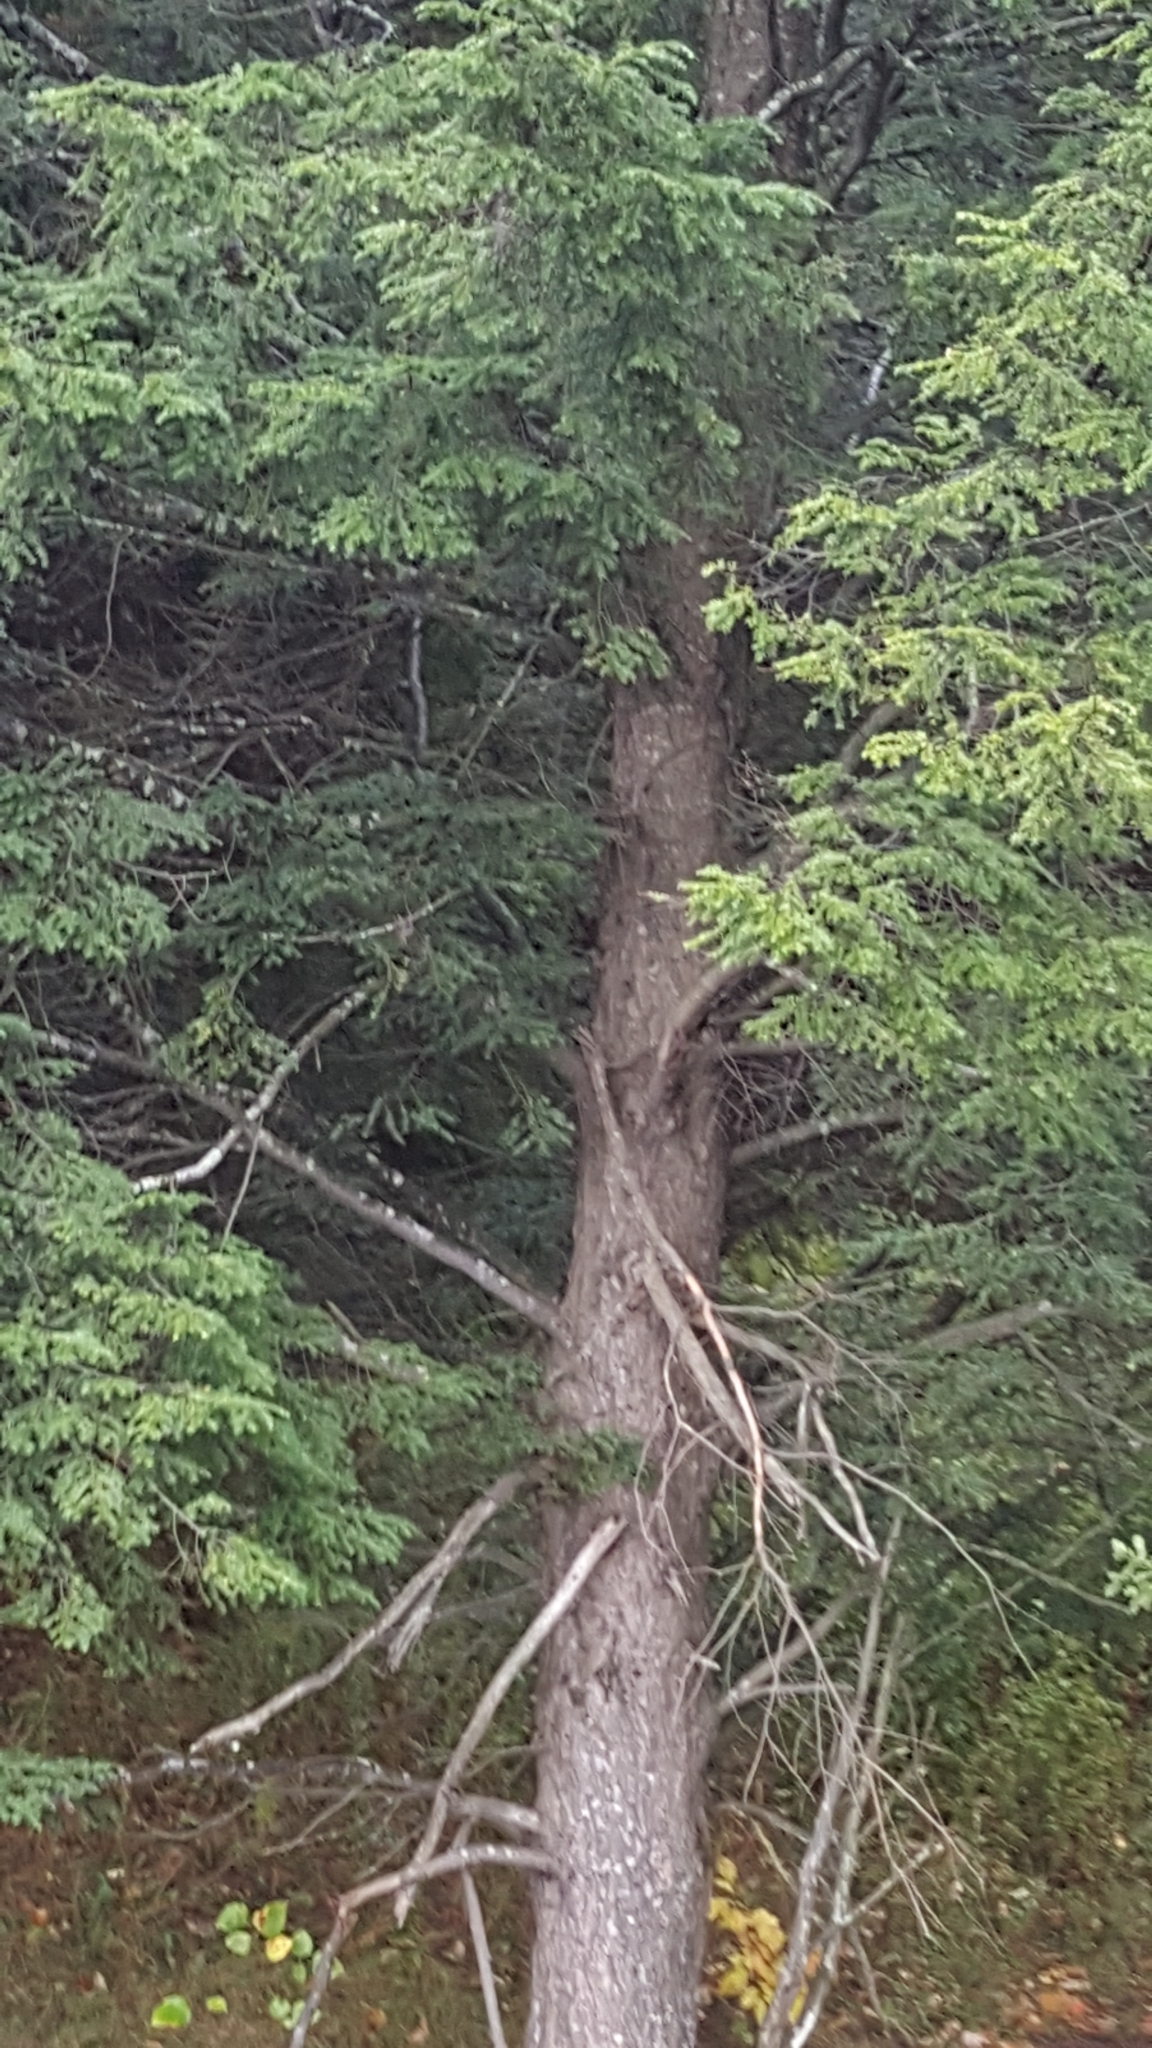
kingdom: Plantae
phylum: Tracheophyta
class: Pinopsida
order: Pinales
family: Pinaceae
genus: Tsuga
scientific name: Tsuga canadensis
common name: Eastern hemlock
